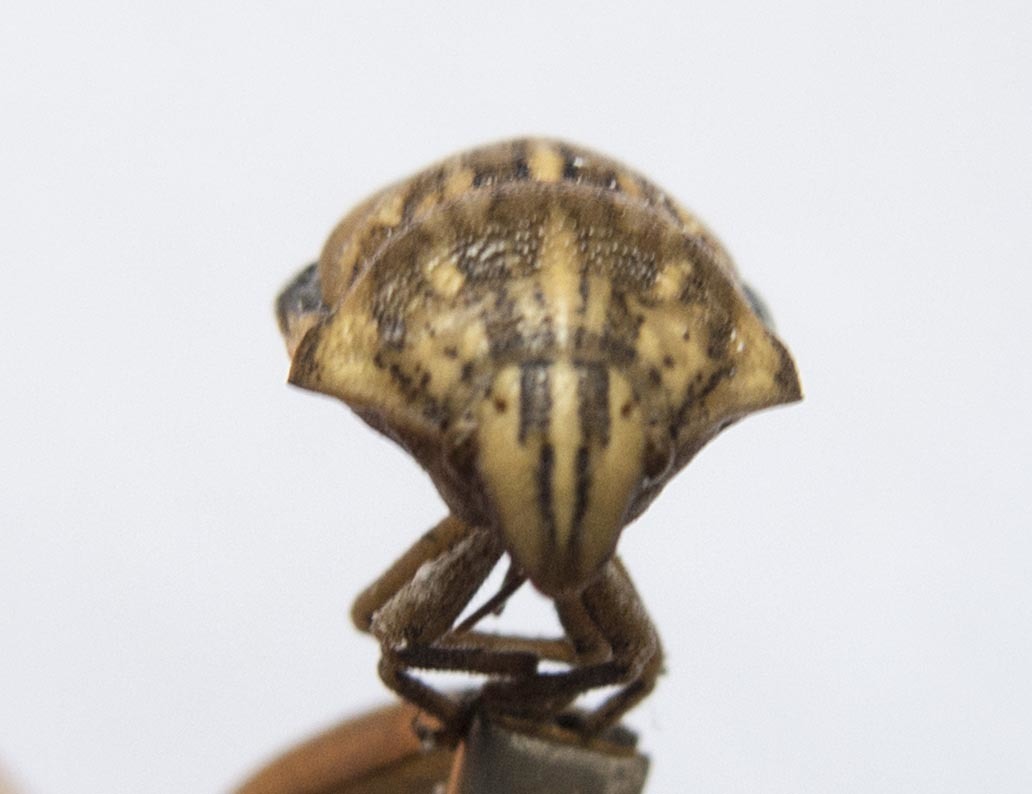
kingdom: Animalia
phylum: Arthropoda
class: Insecta
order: Hemiptera
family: Scutelleridae
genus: Odontotarsus
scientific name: Odontotarsus purpureolineatus
